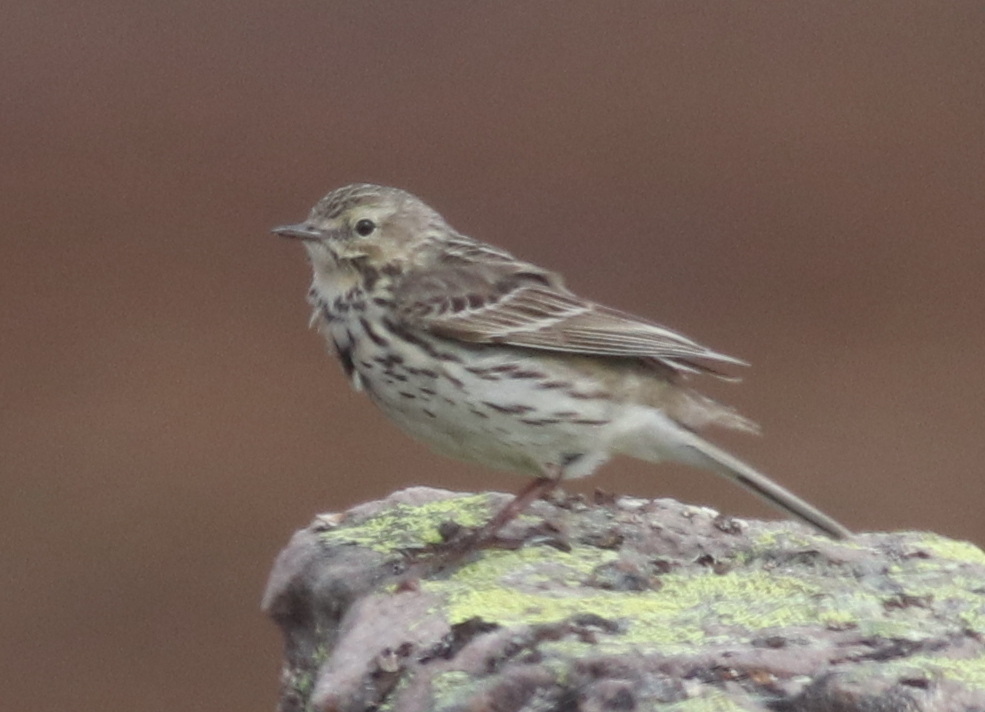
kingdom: Animalia
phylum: Chordata
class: Aves
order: Passeriformes
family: Motacillidae
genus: Anthus
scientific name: Anthus pratensis
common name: Meadow pipit
